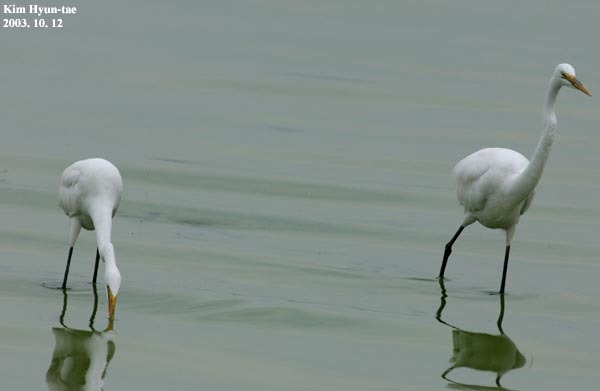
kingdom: Animalia
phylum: Chordata
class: Aves
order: Pelecaniformes
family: Ardeidae
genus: Ardea
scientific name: Ardea alba
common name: Great egret
